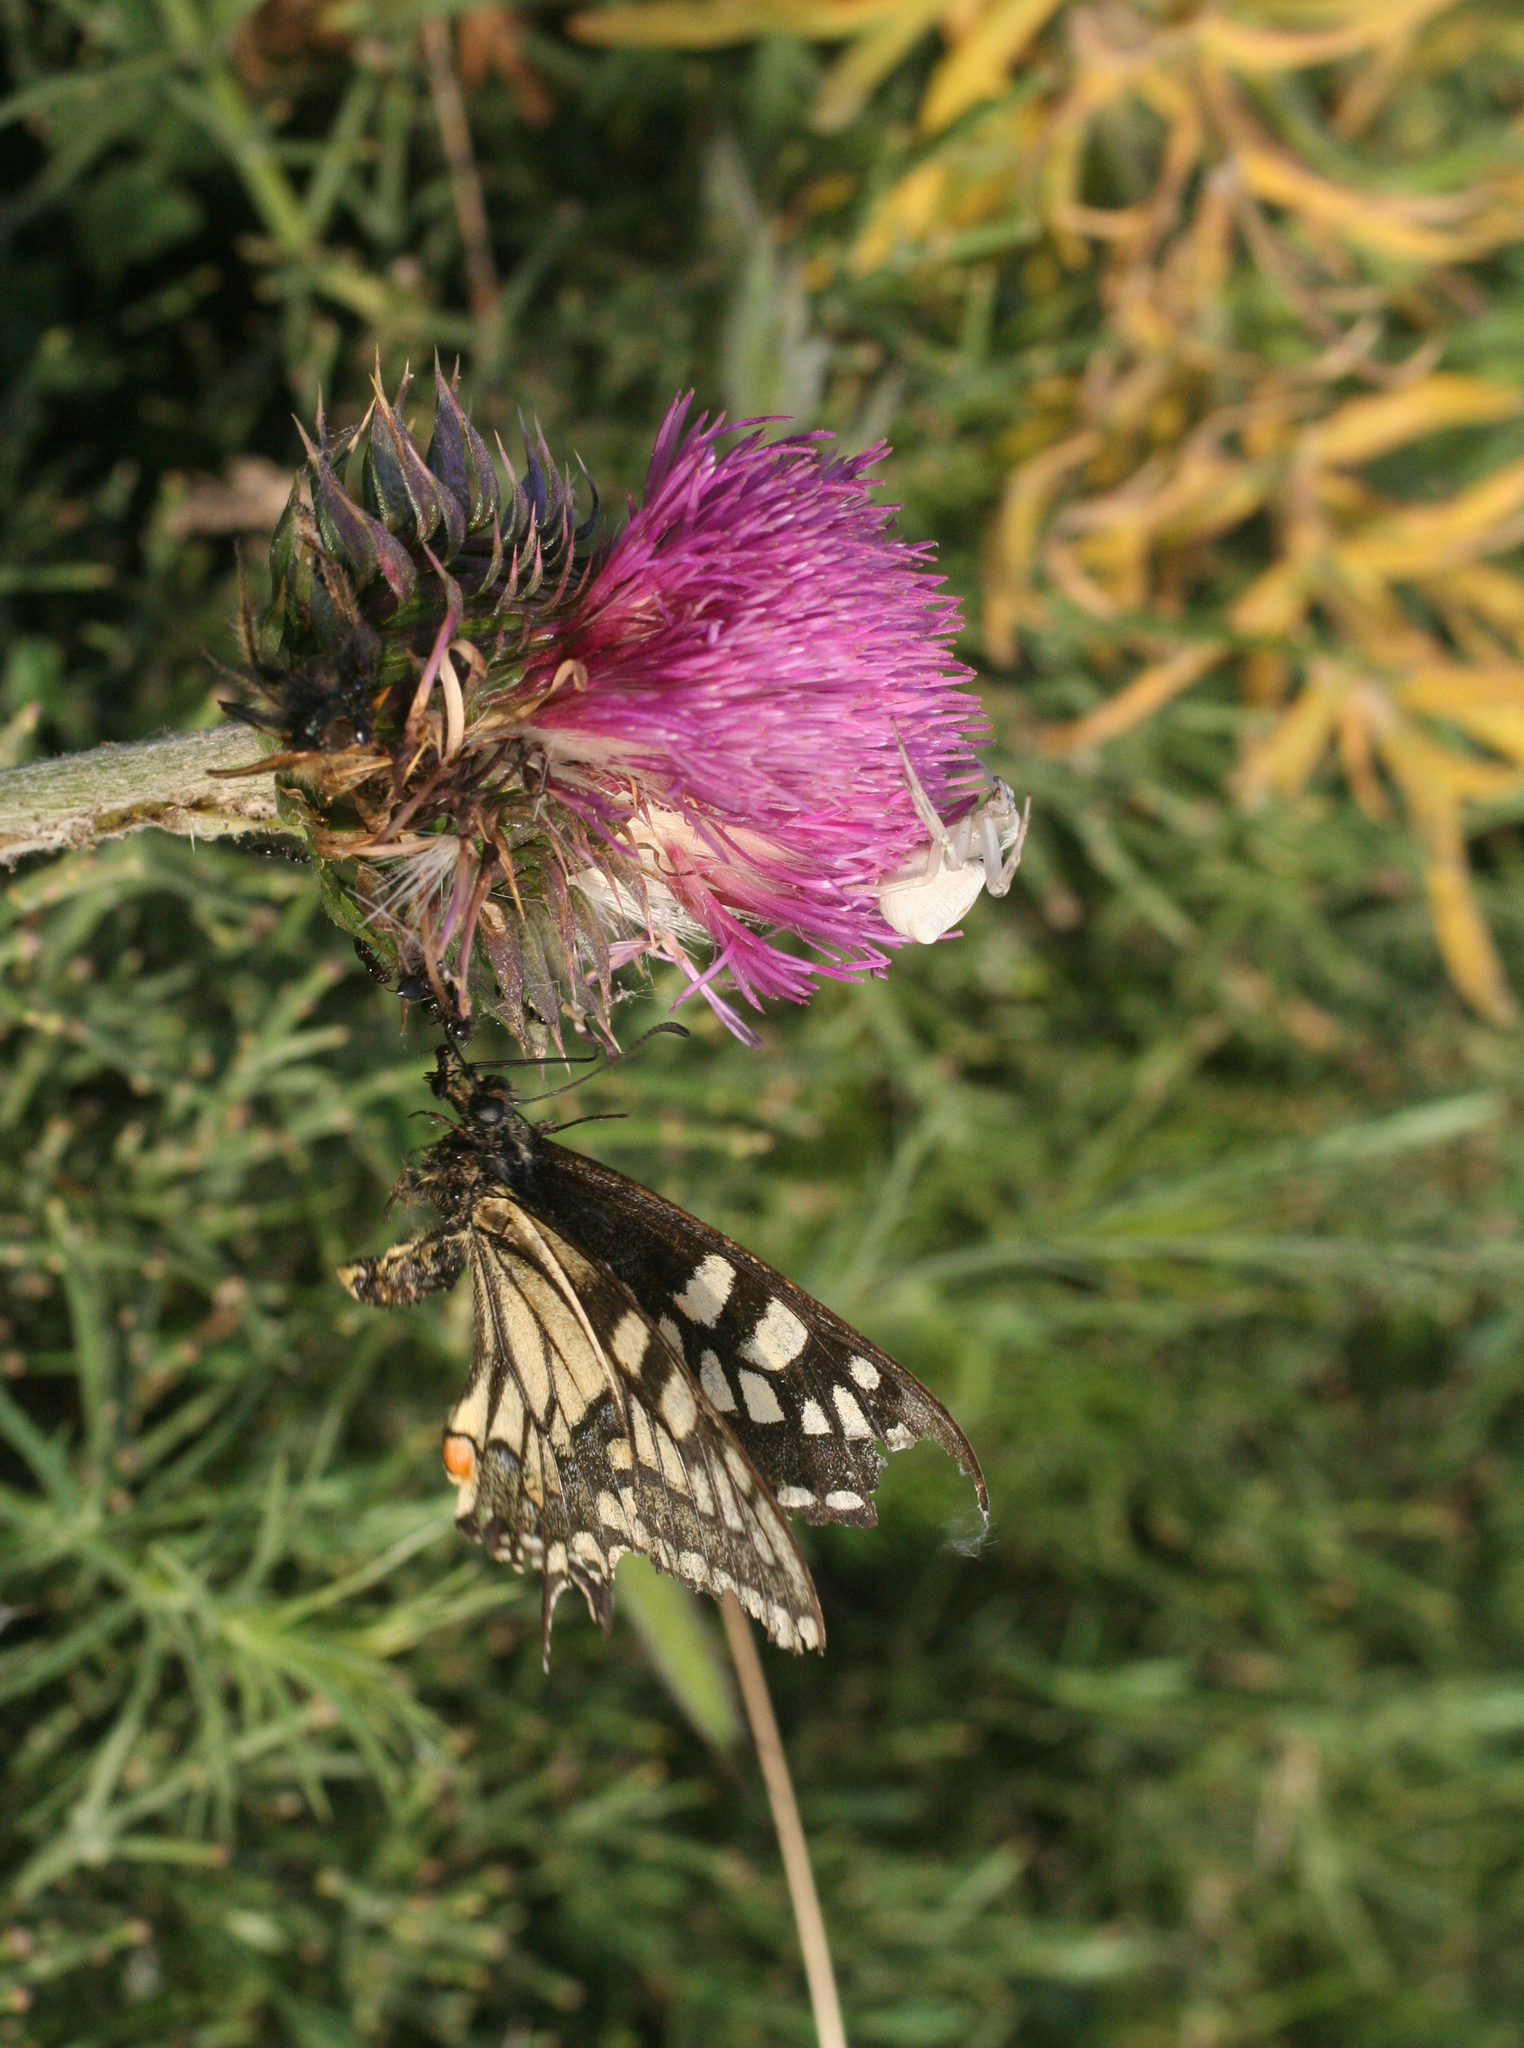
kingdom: Animalia
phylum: Arthropoda
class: Insecta
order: Lepidoptera
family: Papilionidae
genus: Papilio
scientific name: Papilio machaon
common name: Swallowtail
